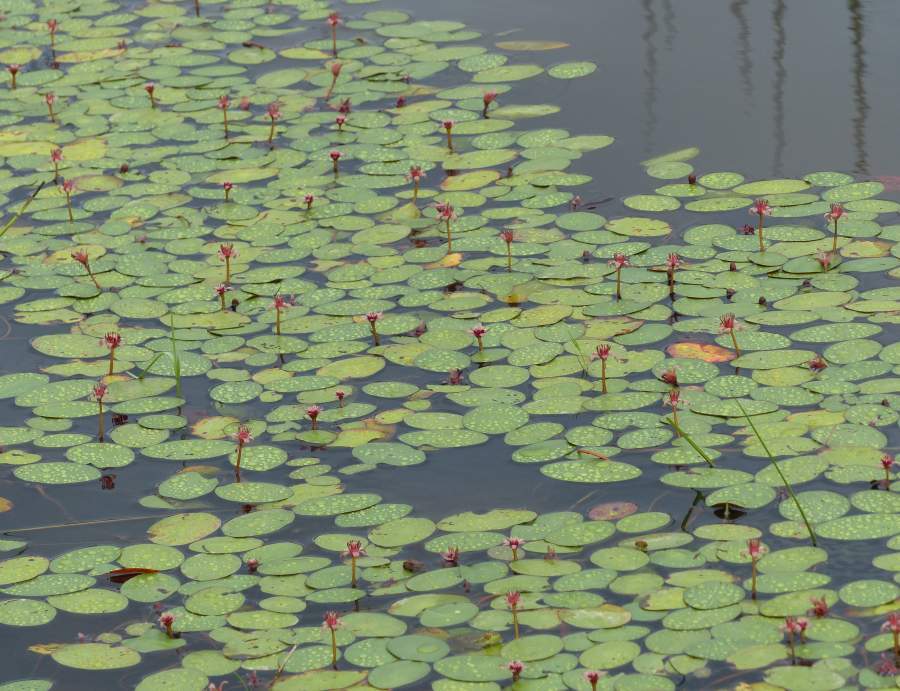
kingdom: Plantae
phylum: Tracheophyta
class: Magnoliopsida
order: Nymphaeales
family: Cabombaceae
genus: Brasenia
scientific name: Brasenia schreberi
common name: Water-shield
